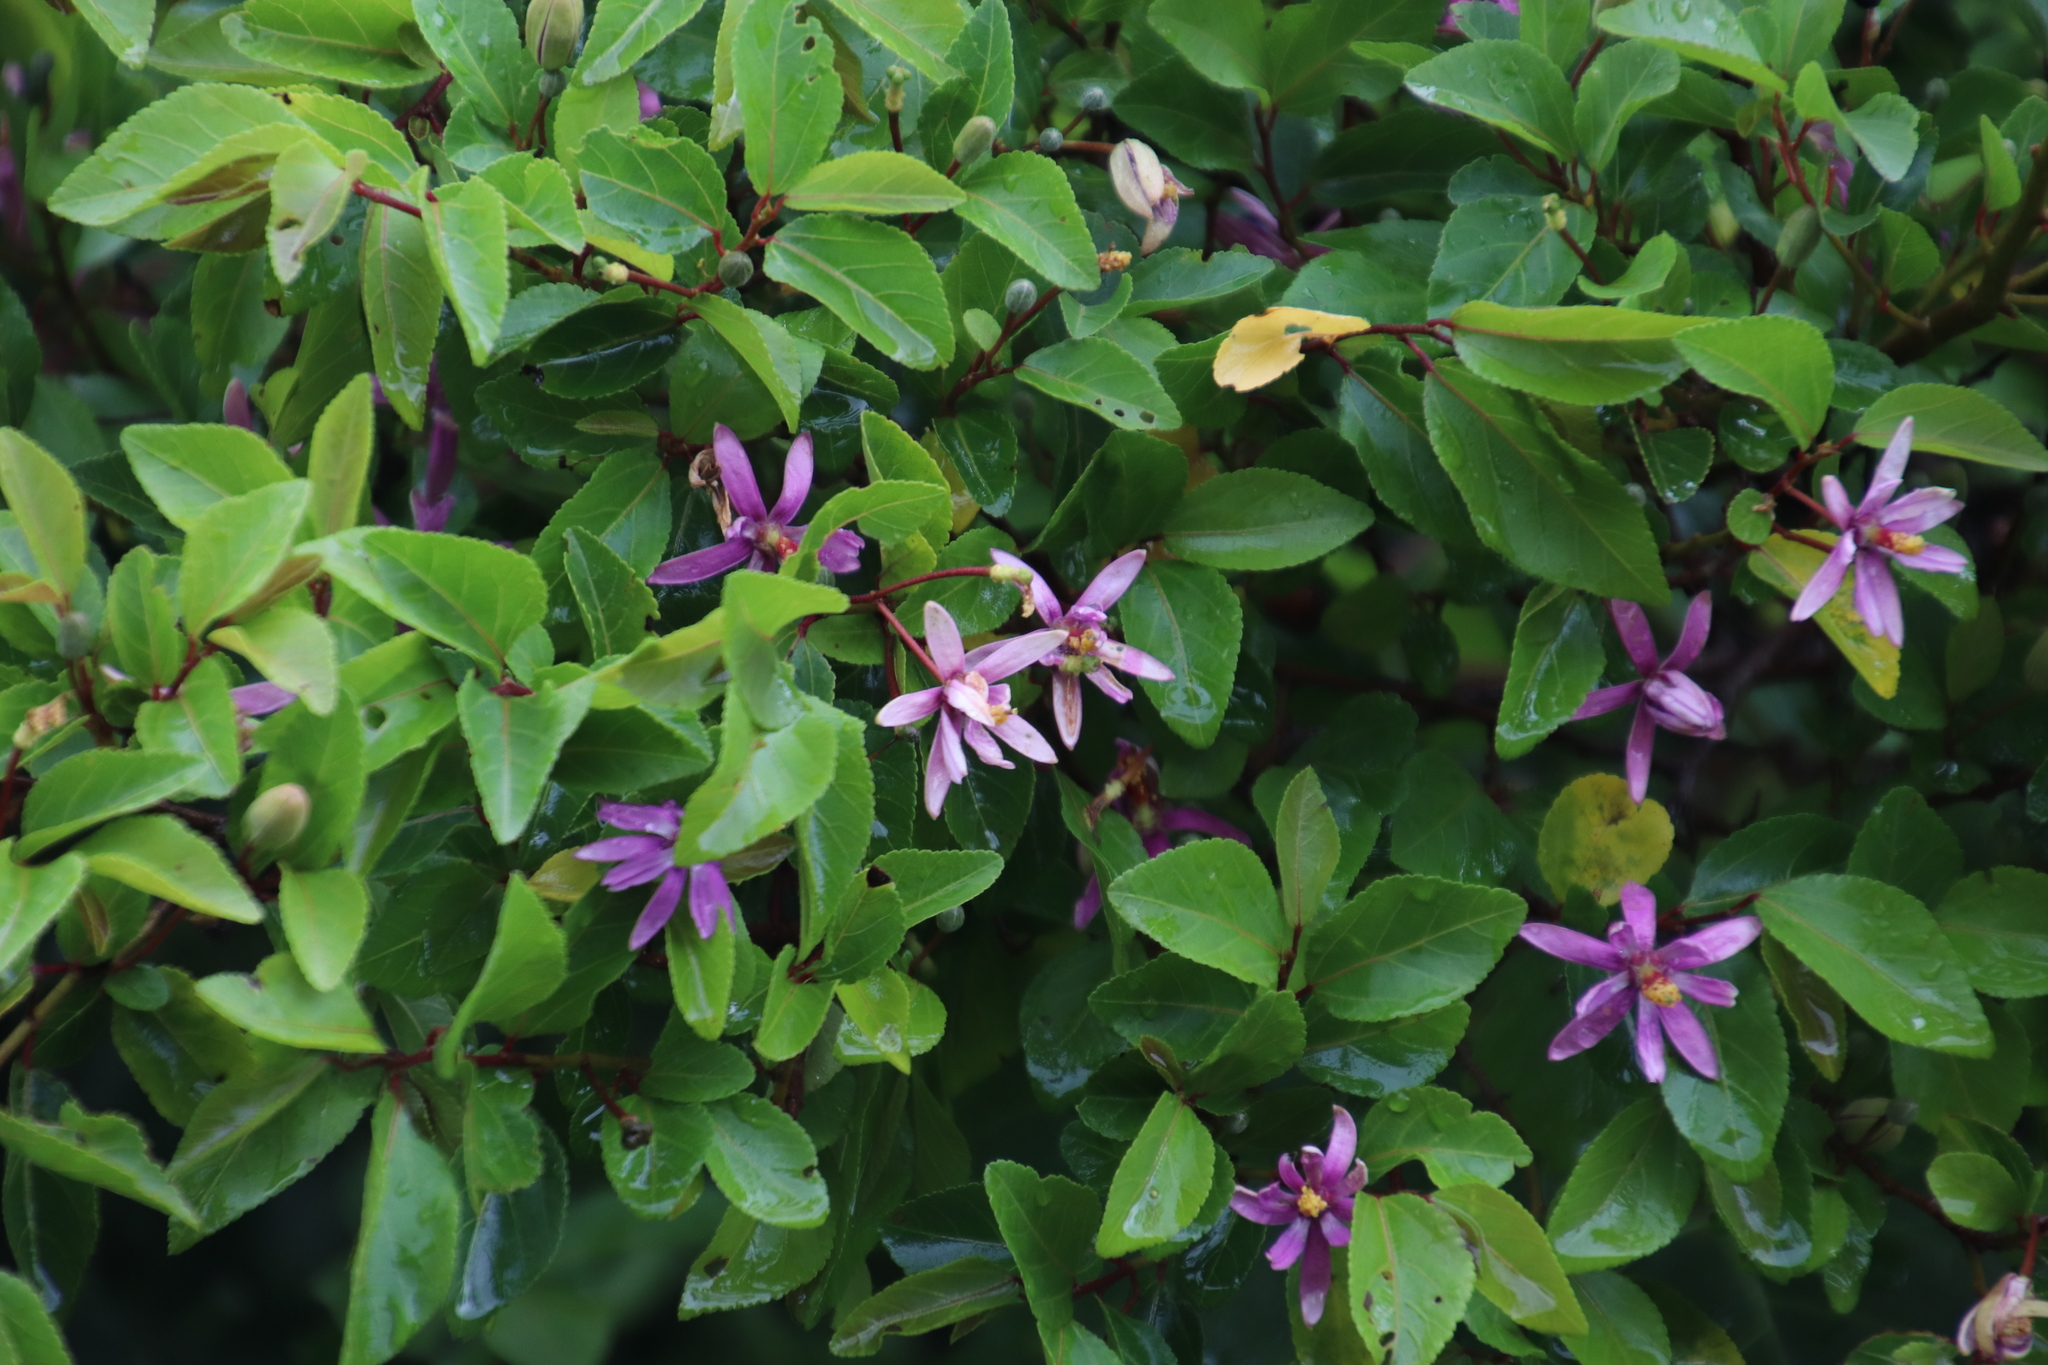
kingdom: Plantae
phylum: Tracheophyta
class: Magnoliopsida
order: Malvales
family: Malvaceae
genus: Grewia
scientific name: Grewia occidentalis
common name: Crossberry
